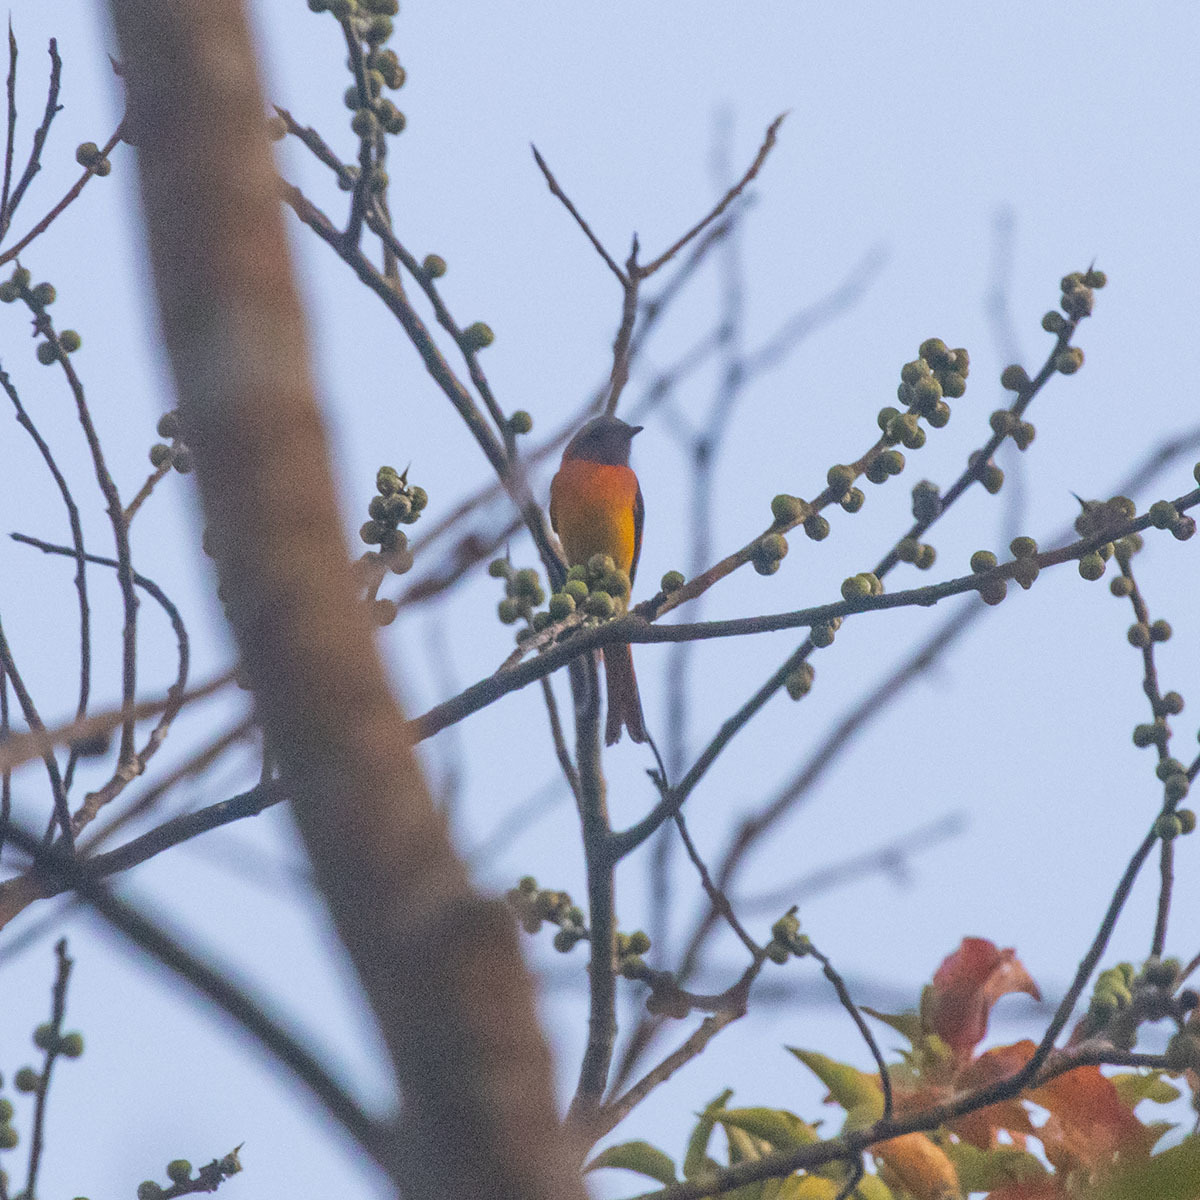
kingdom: Animalia
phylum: Chordata
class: Aves
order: Passeriformes
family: Campephagidae
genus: Pericrocotus
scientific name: Pericrocotus cinnamomeus
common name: Small minivet
